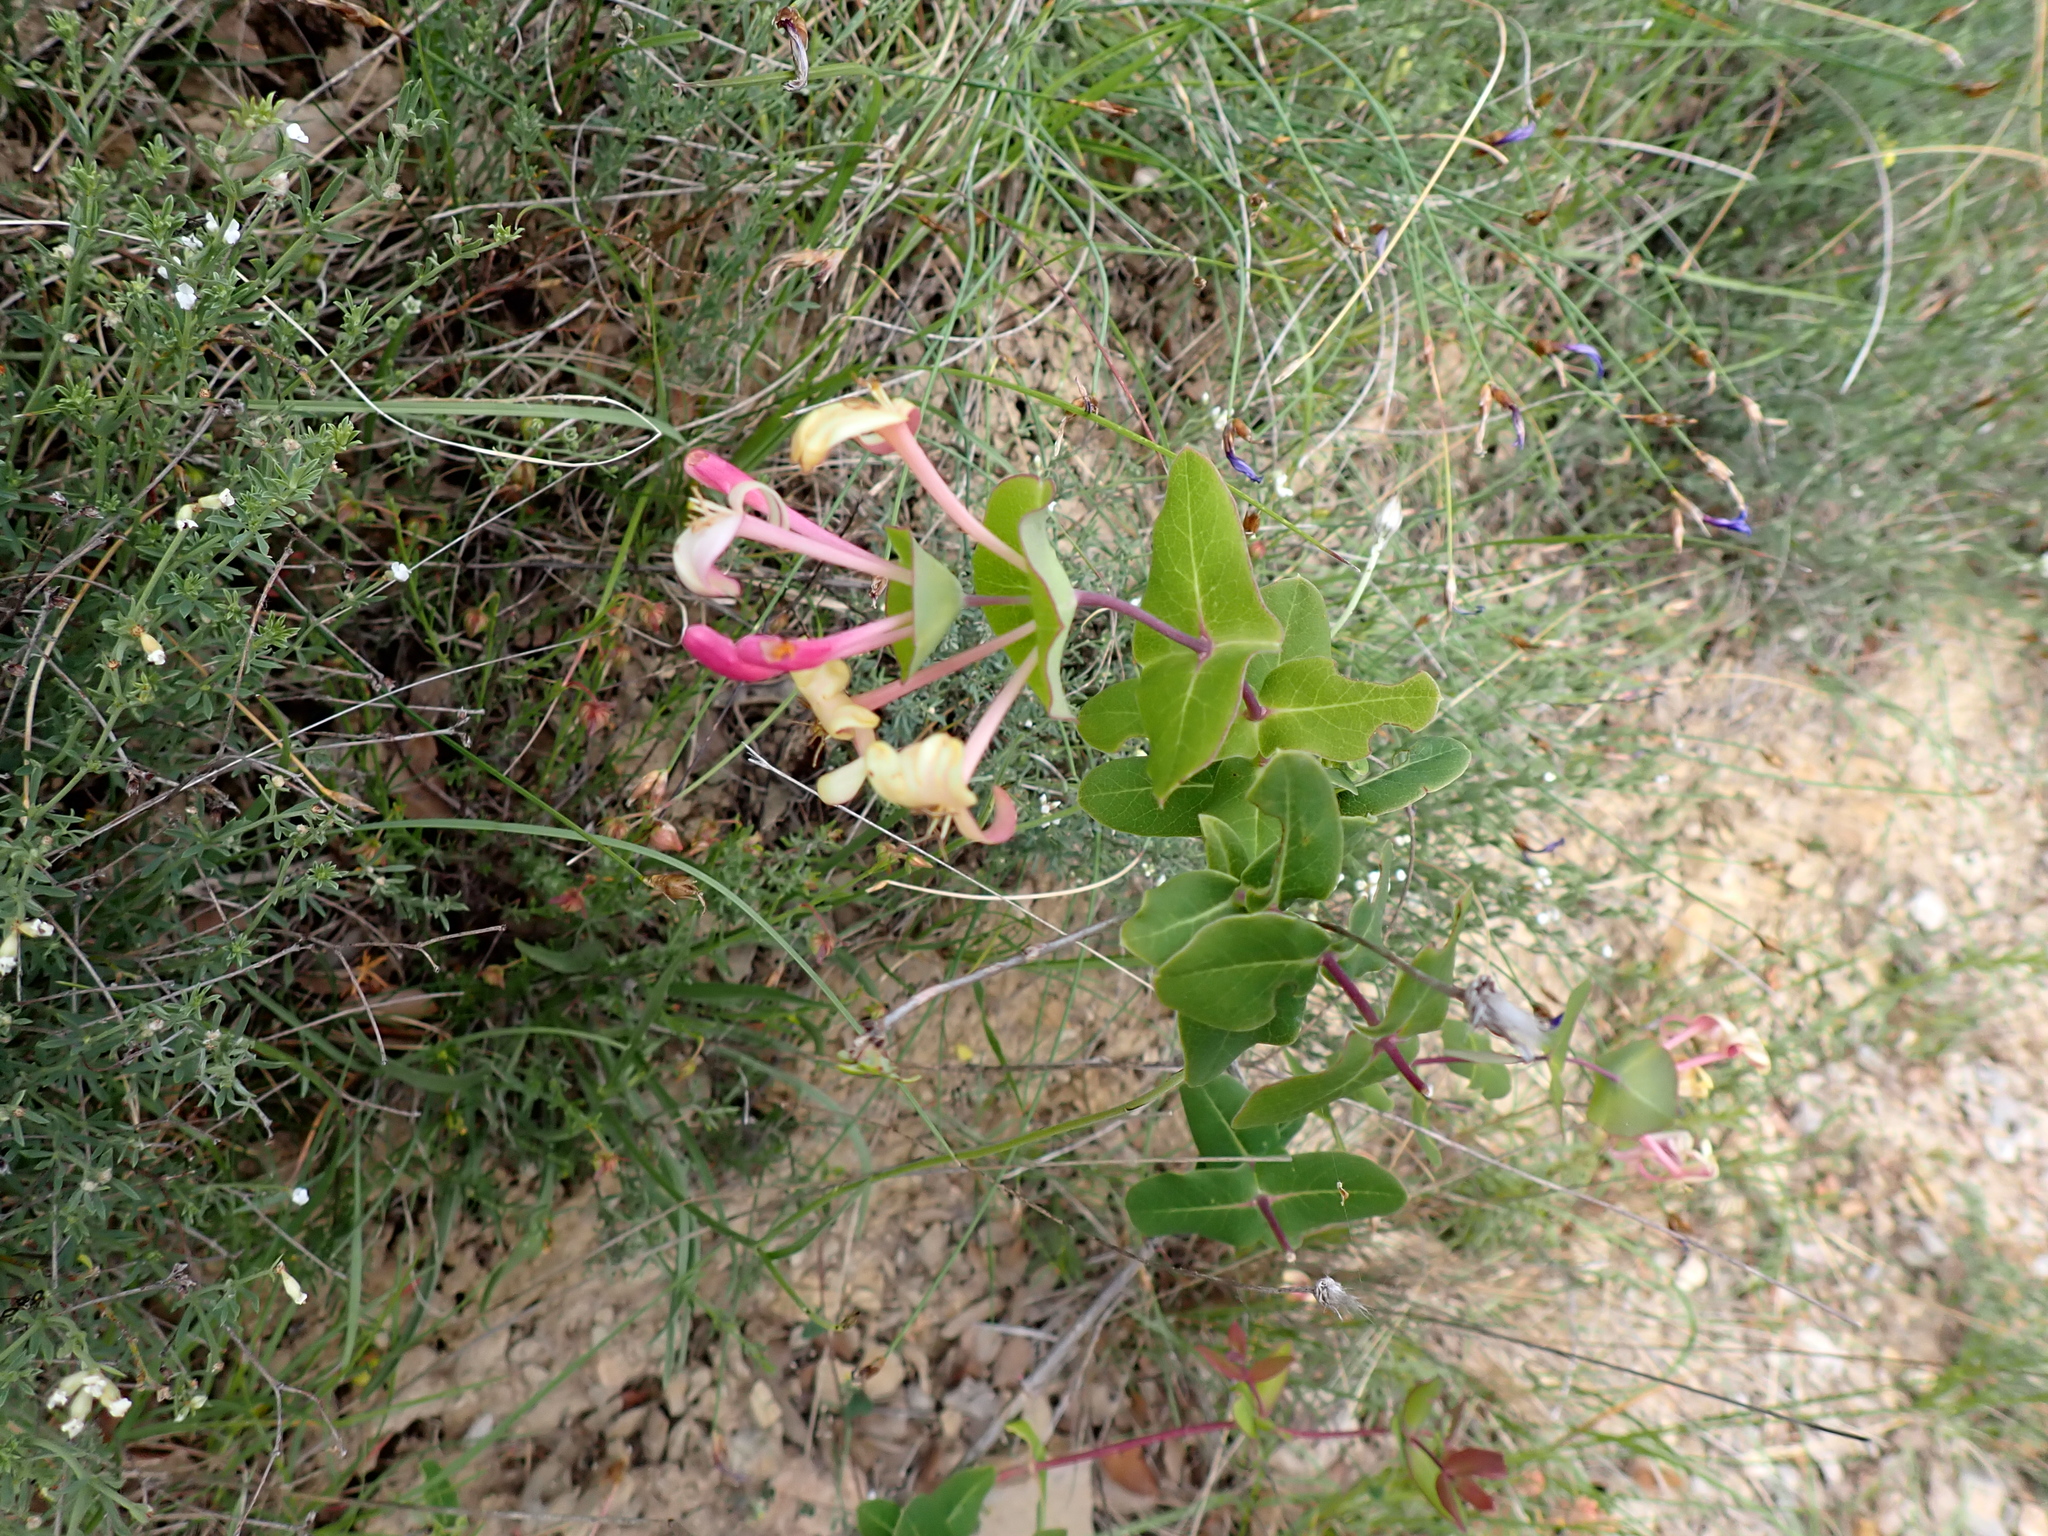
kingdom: Plantae
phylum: Tracheophyta
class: Magnoliopsida
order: Dipsacales
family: Caprifoliaceae
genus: Lonicera
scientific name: Lonicera implexa
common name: Minorca honeysuckle
